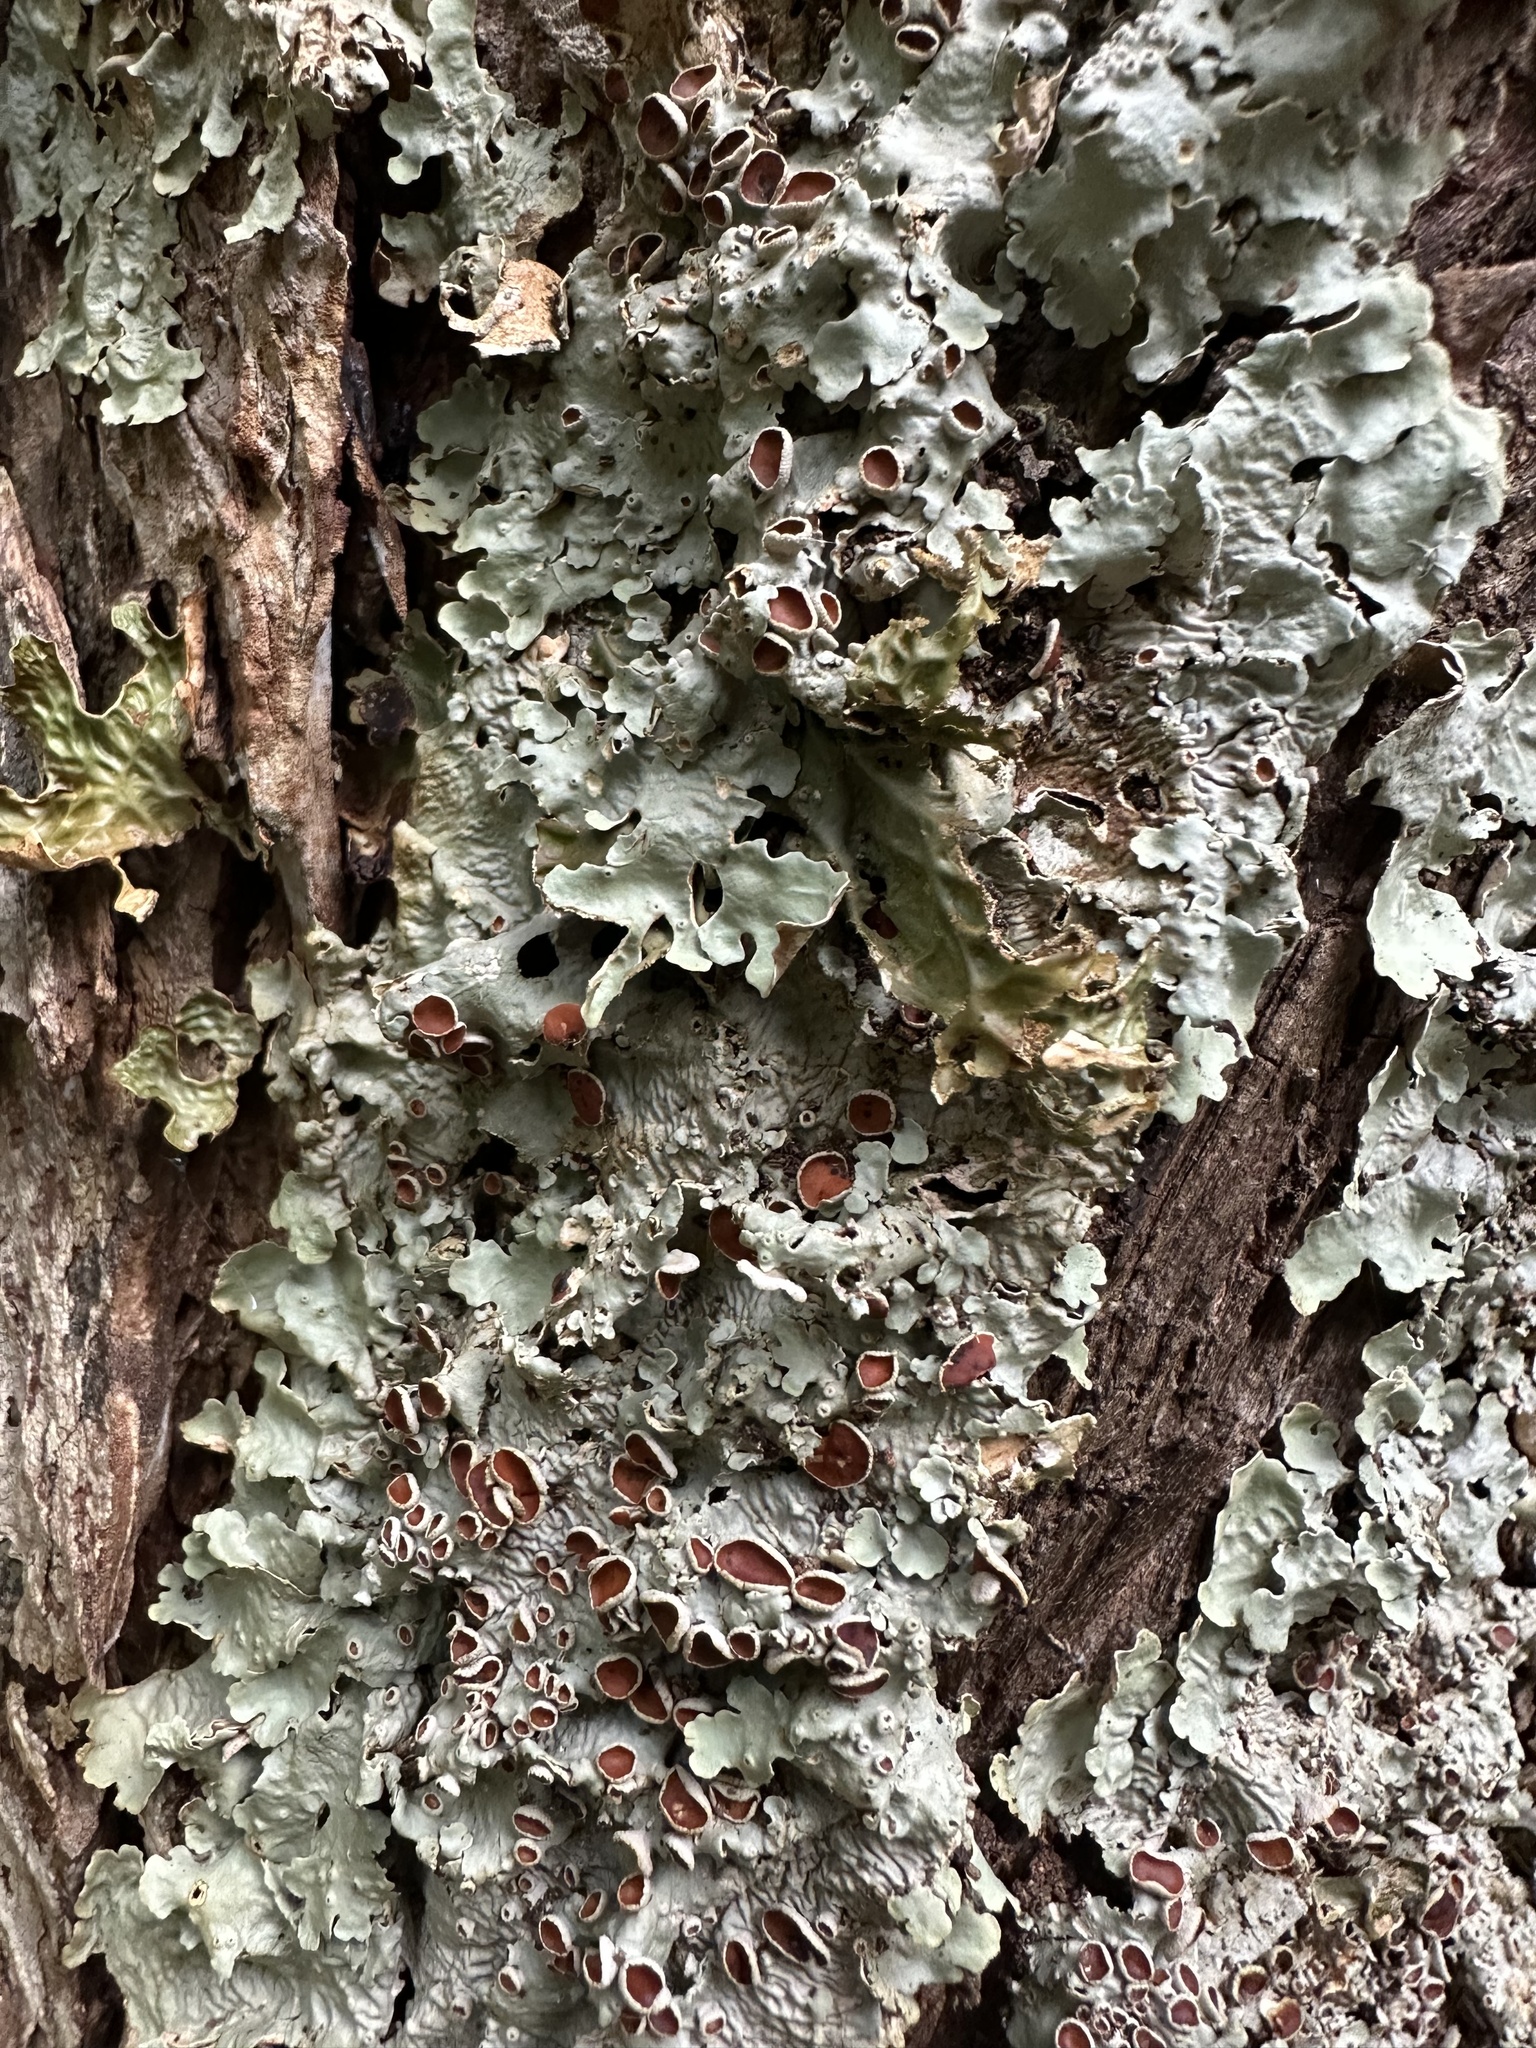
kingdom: Fungi
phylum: Ascomycota
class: Lecanoromycetes
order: Peltigerales
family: Lobariaceae
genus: Ricasolia
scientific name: Ricasolia quercizans
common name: Smooth lungwort
